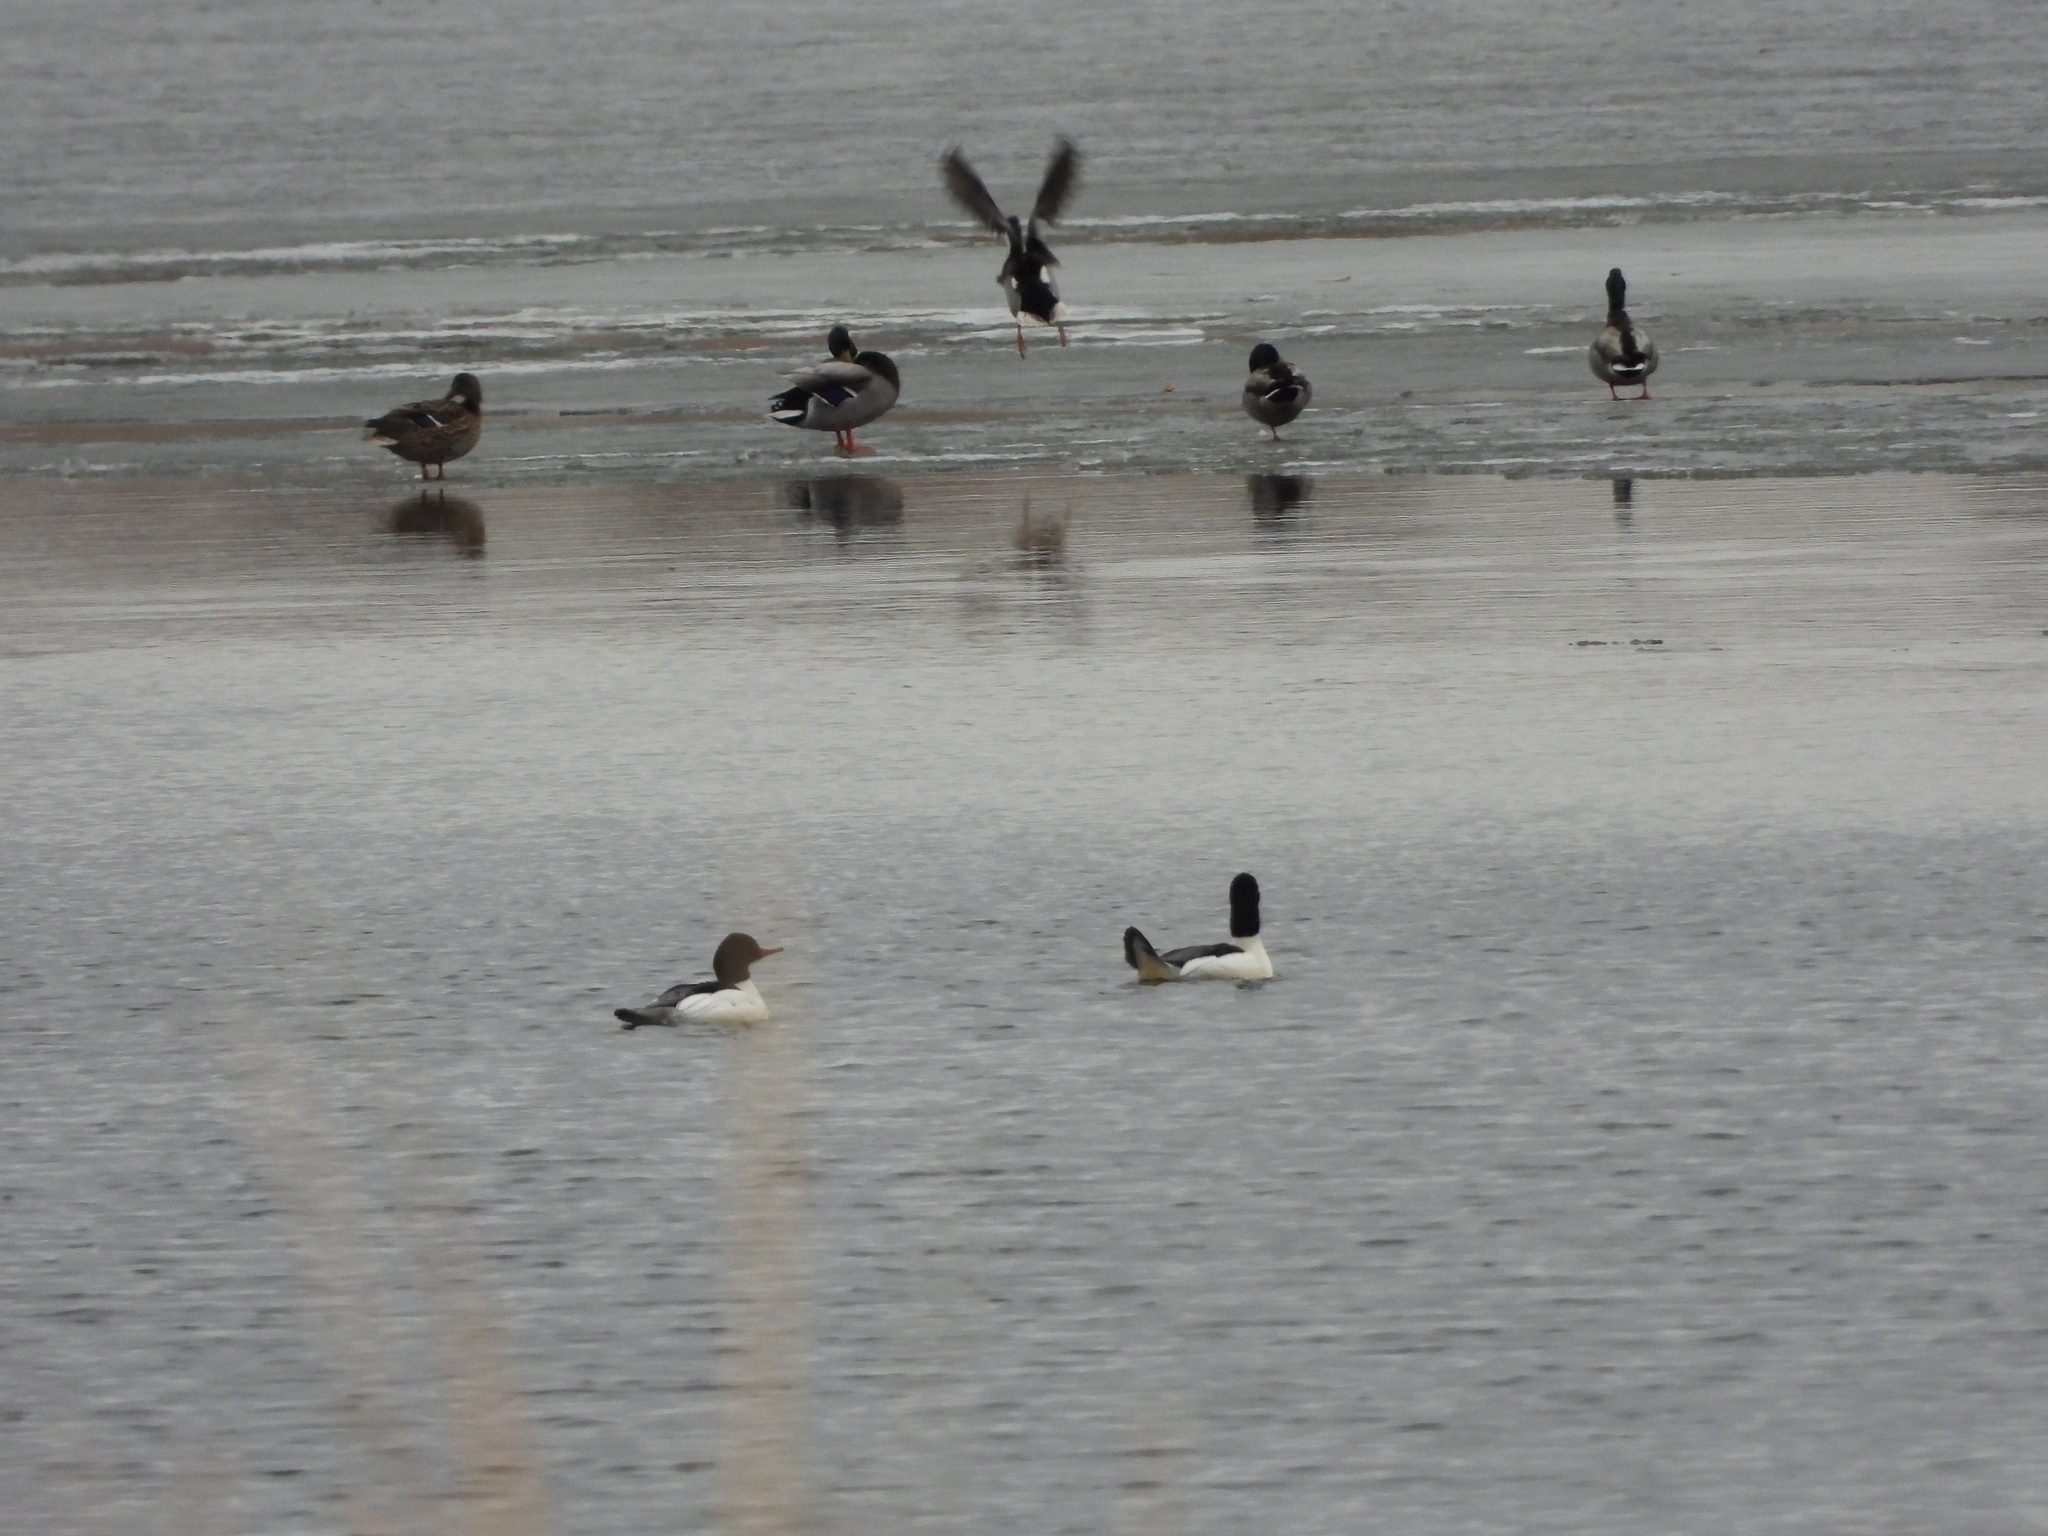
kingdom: Animalia
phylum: Chordata
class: Aves
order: Anseriformes
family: Anatidae
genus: Mergus
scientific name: Mergus merganser
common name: Common merganser
